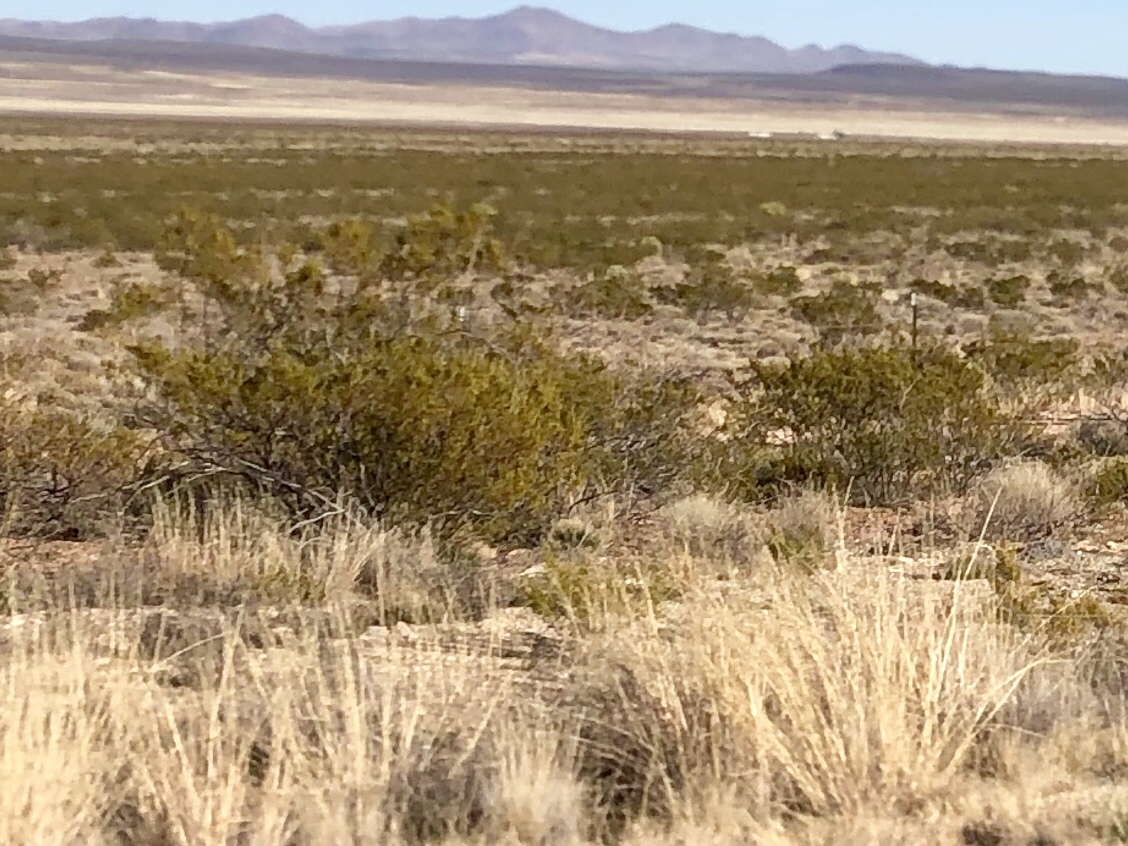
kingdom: Plantae
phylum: Tracheophyta
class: Magnoliopsida
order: Zygophyllales
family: Zygophyllaceae
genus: Larrea
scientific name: Larrea tridentata
